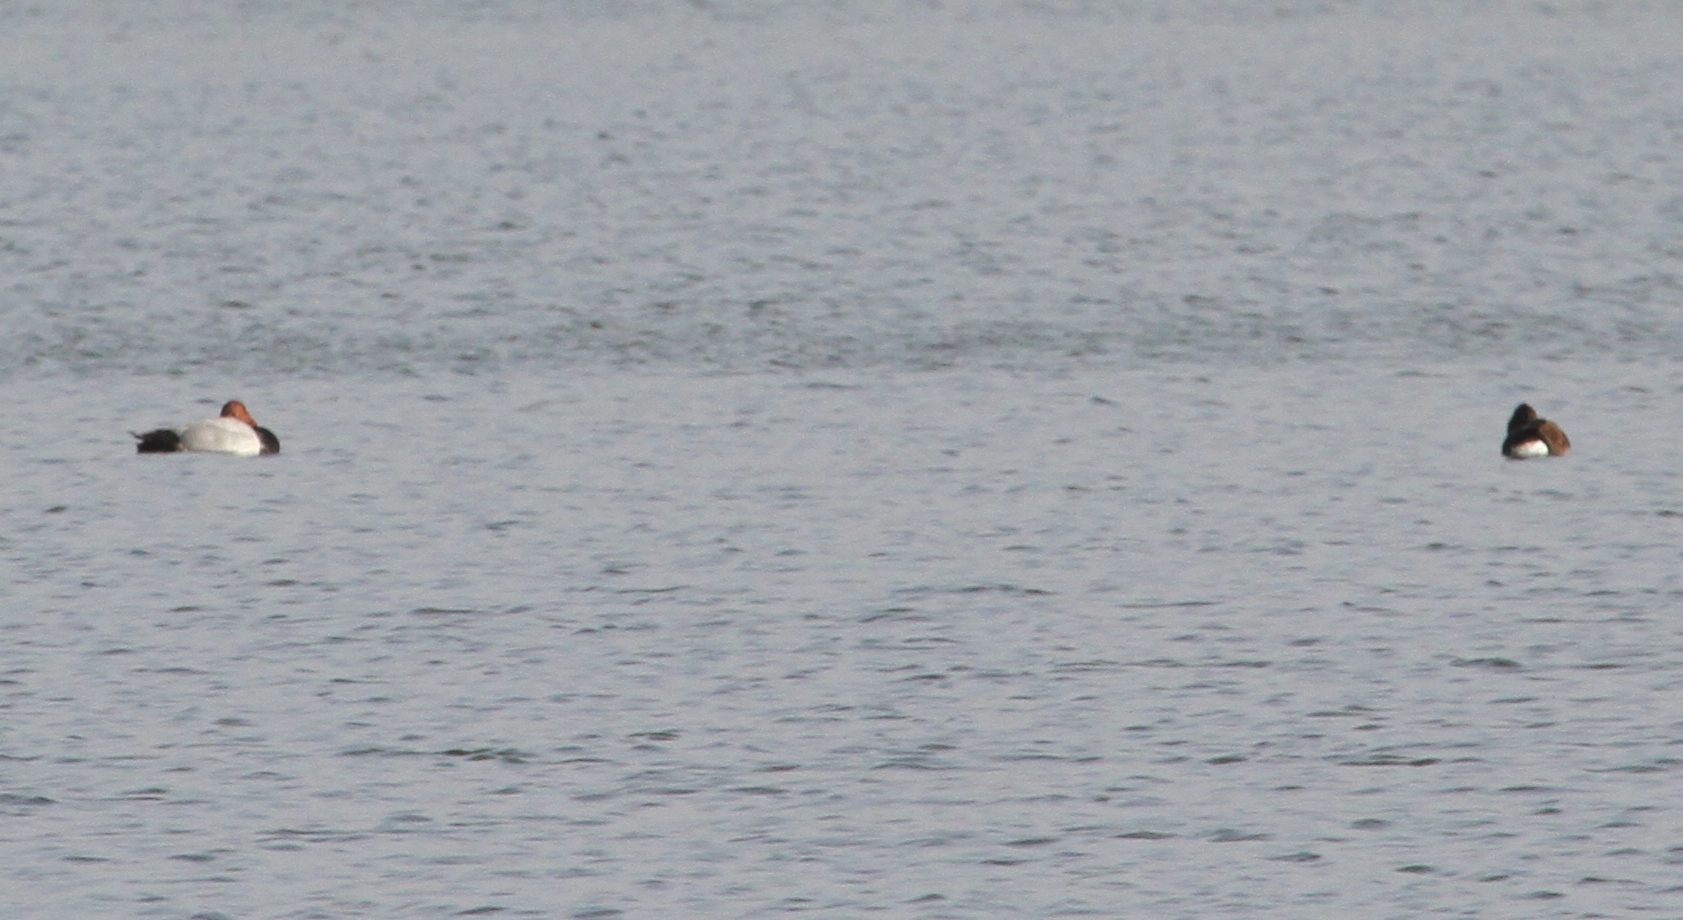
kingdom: Animalia
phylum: Chordata
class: Aves
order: Anseriformes
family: Anatidae
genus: Aythya
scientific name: Aythya ferina
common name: Common pochard
